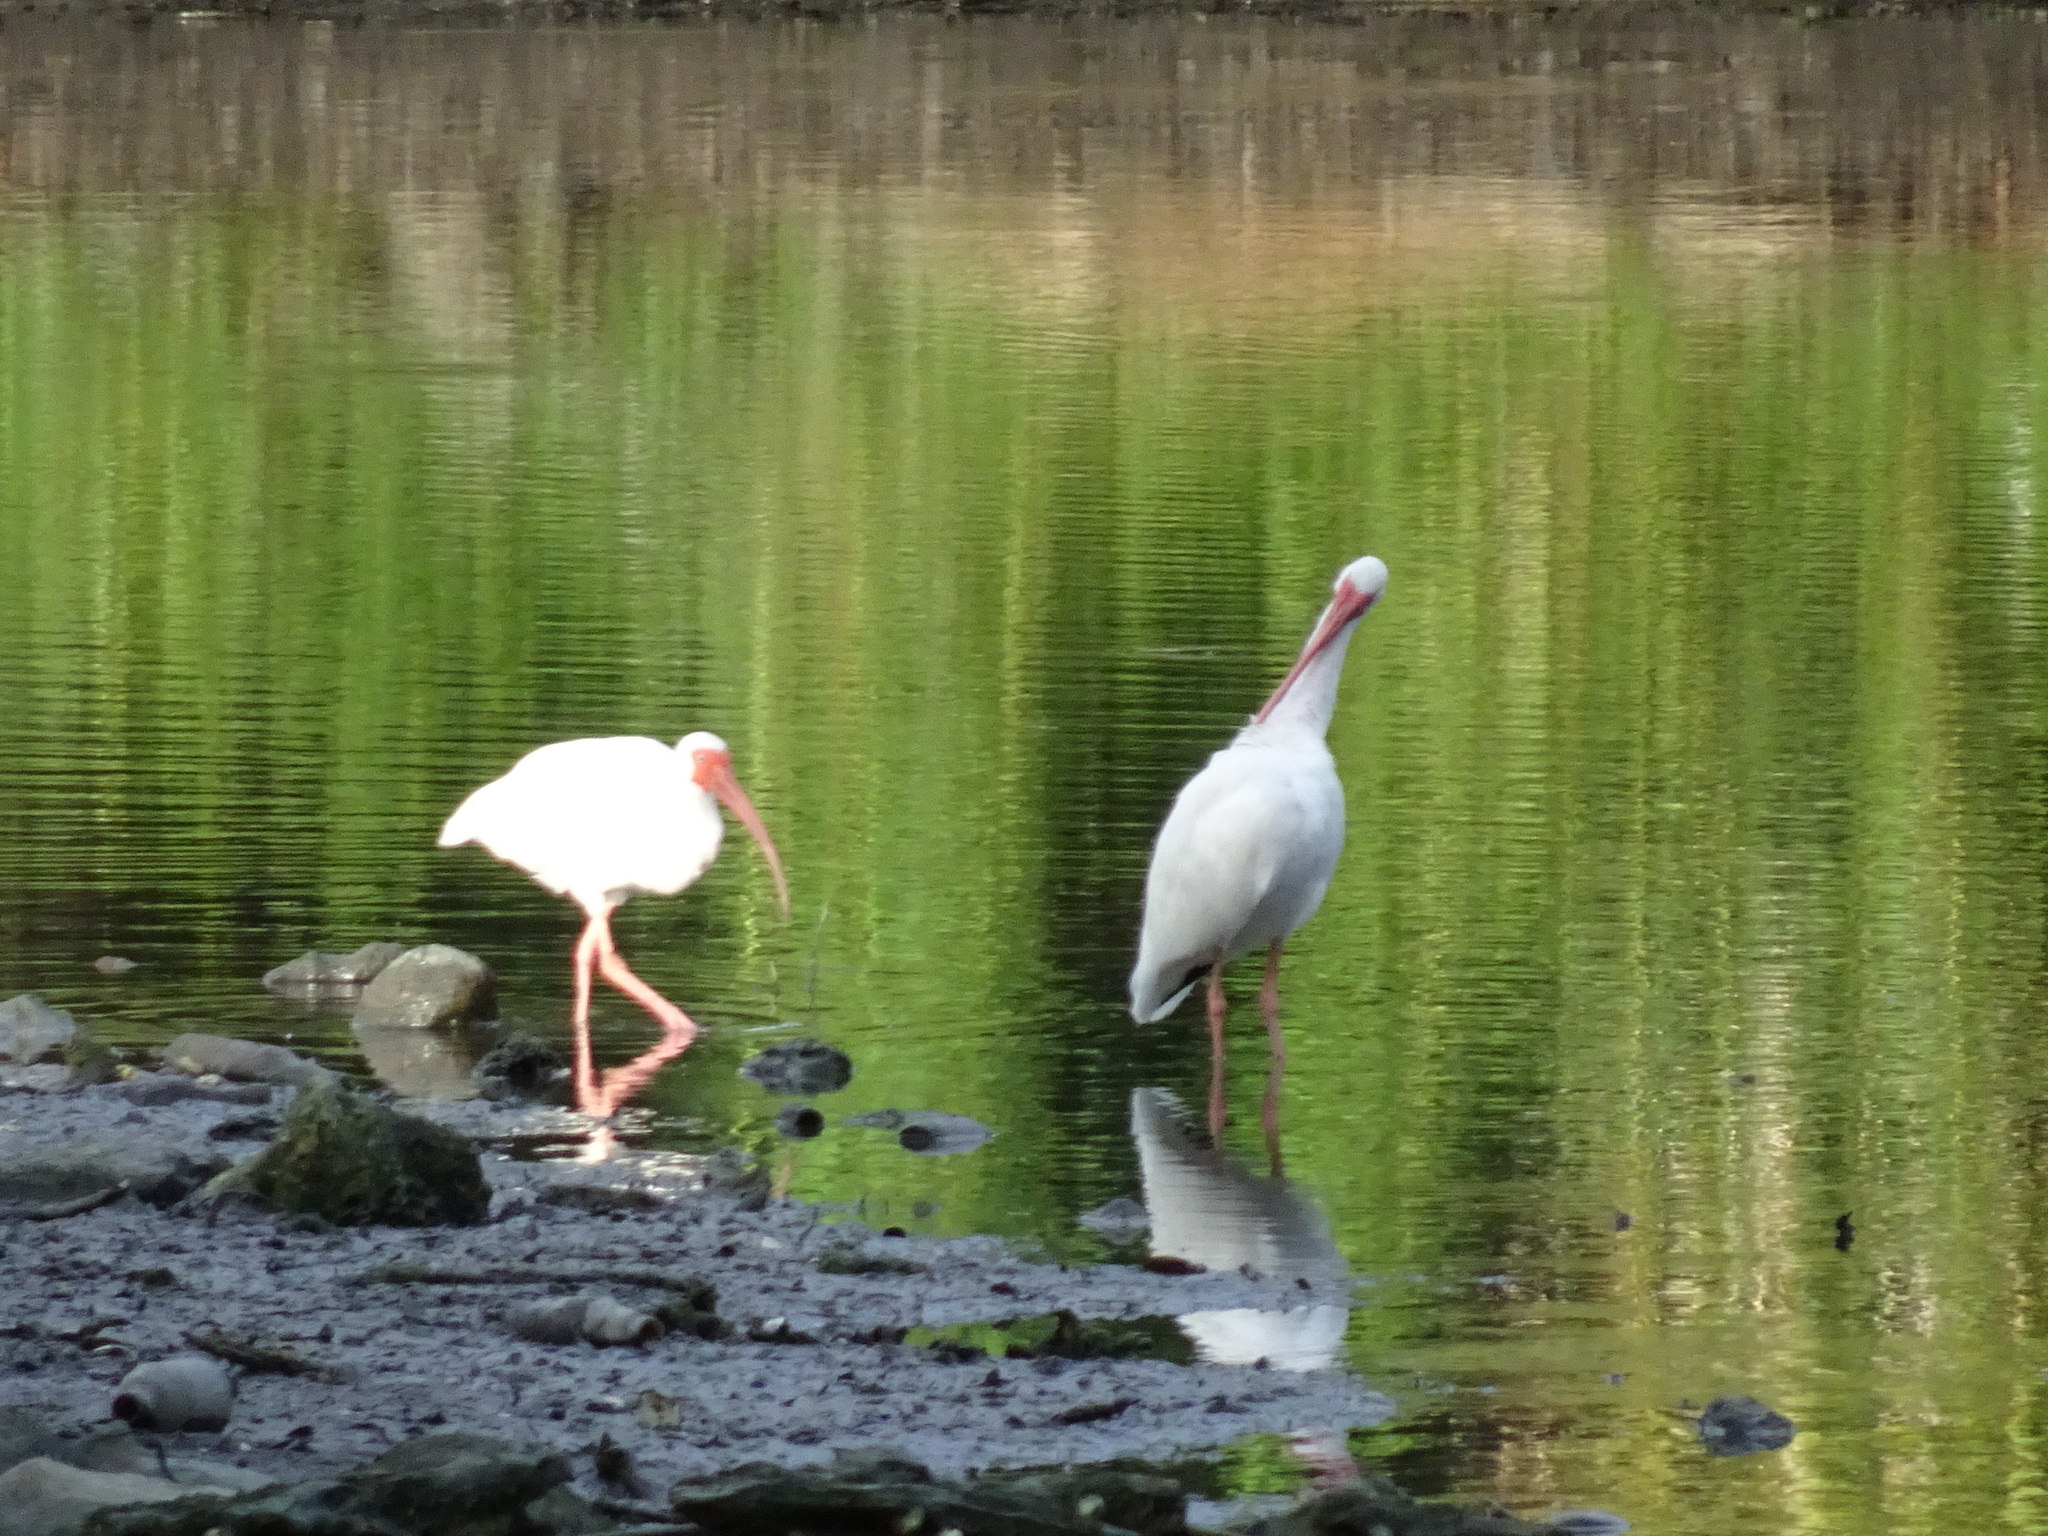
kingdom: Animalia
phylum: Chordata
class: Aves
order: Pelecaniformes
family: Threskiornithidae
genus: Eudocimus
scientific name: Eudocimus albus
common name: White ibis
